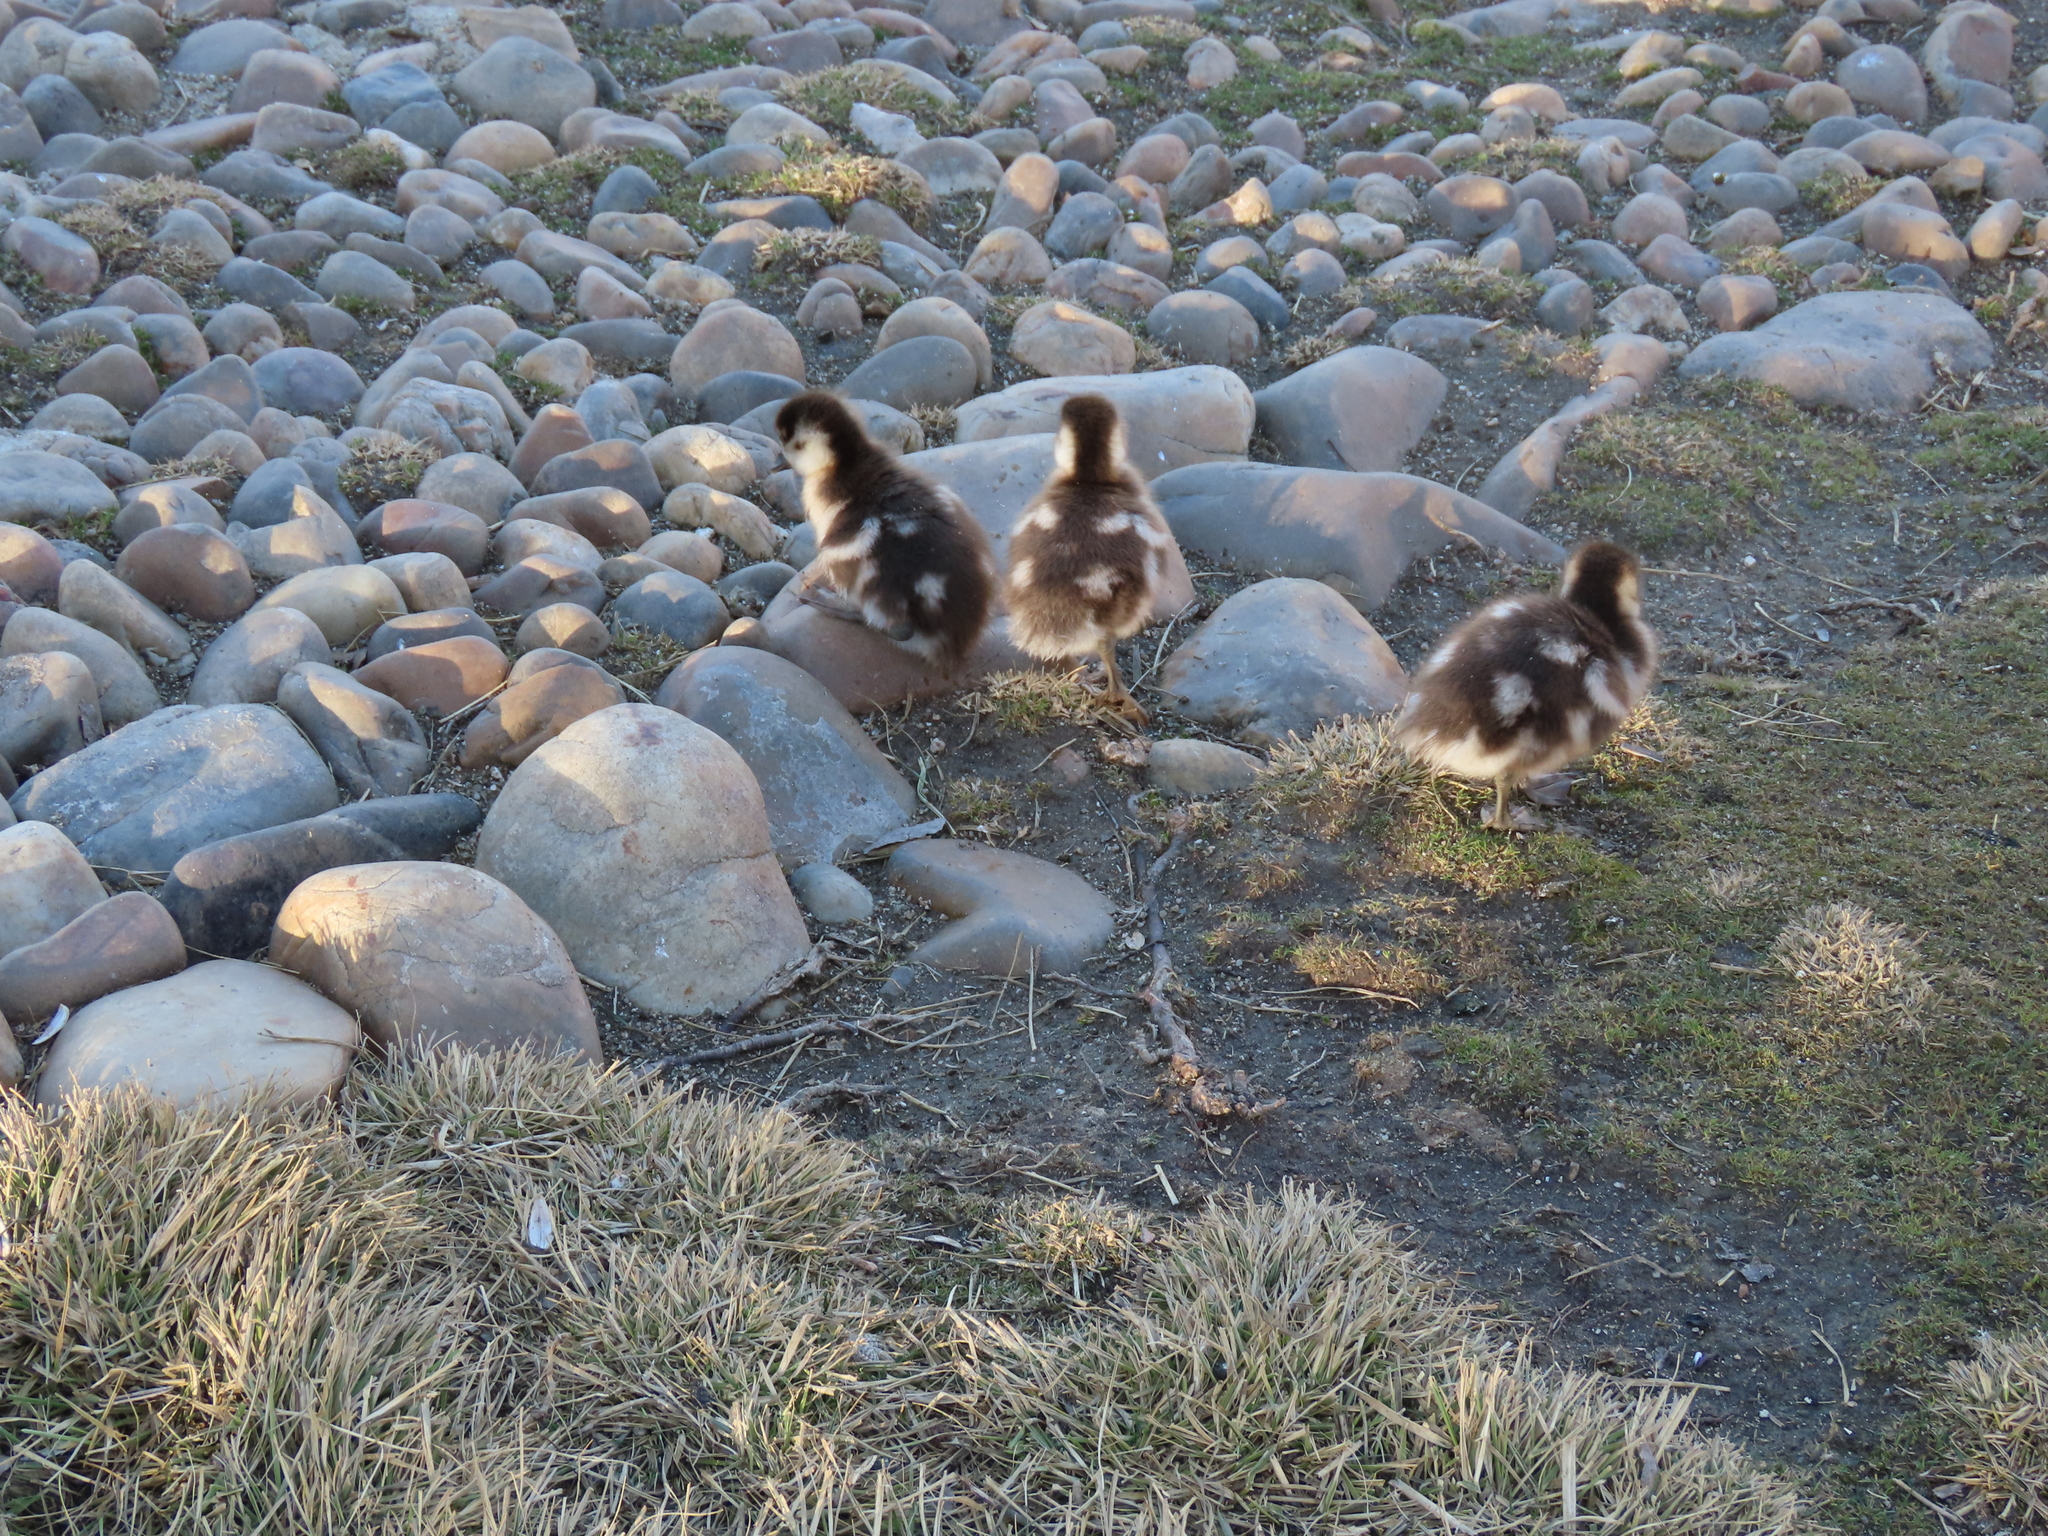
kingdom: Animalia
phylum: Chordata
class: Aves
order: Anseriformes
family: Anatidae
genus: Alopochen
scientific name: Alopochen aegyptiaca
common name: Egyptian goose
